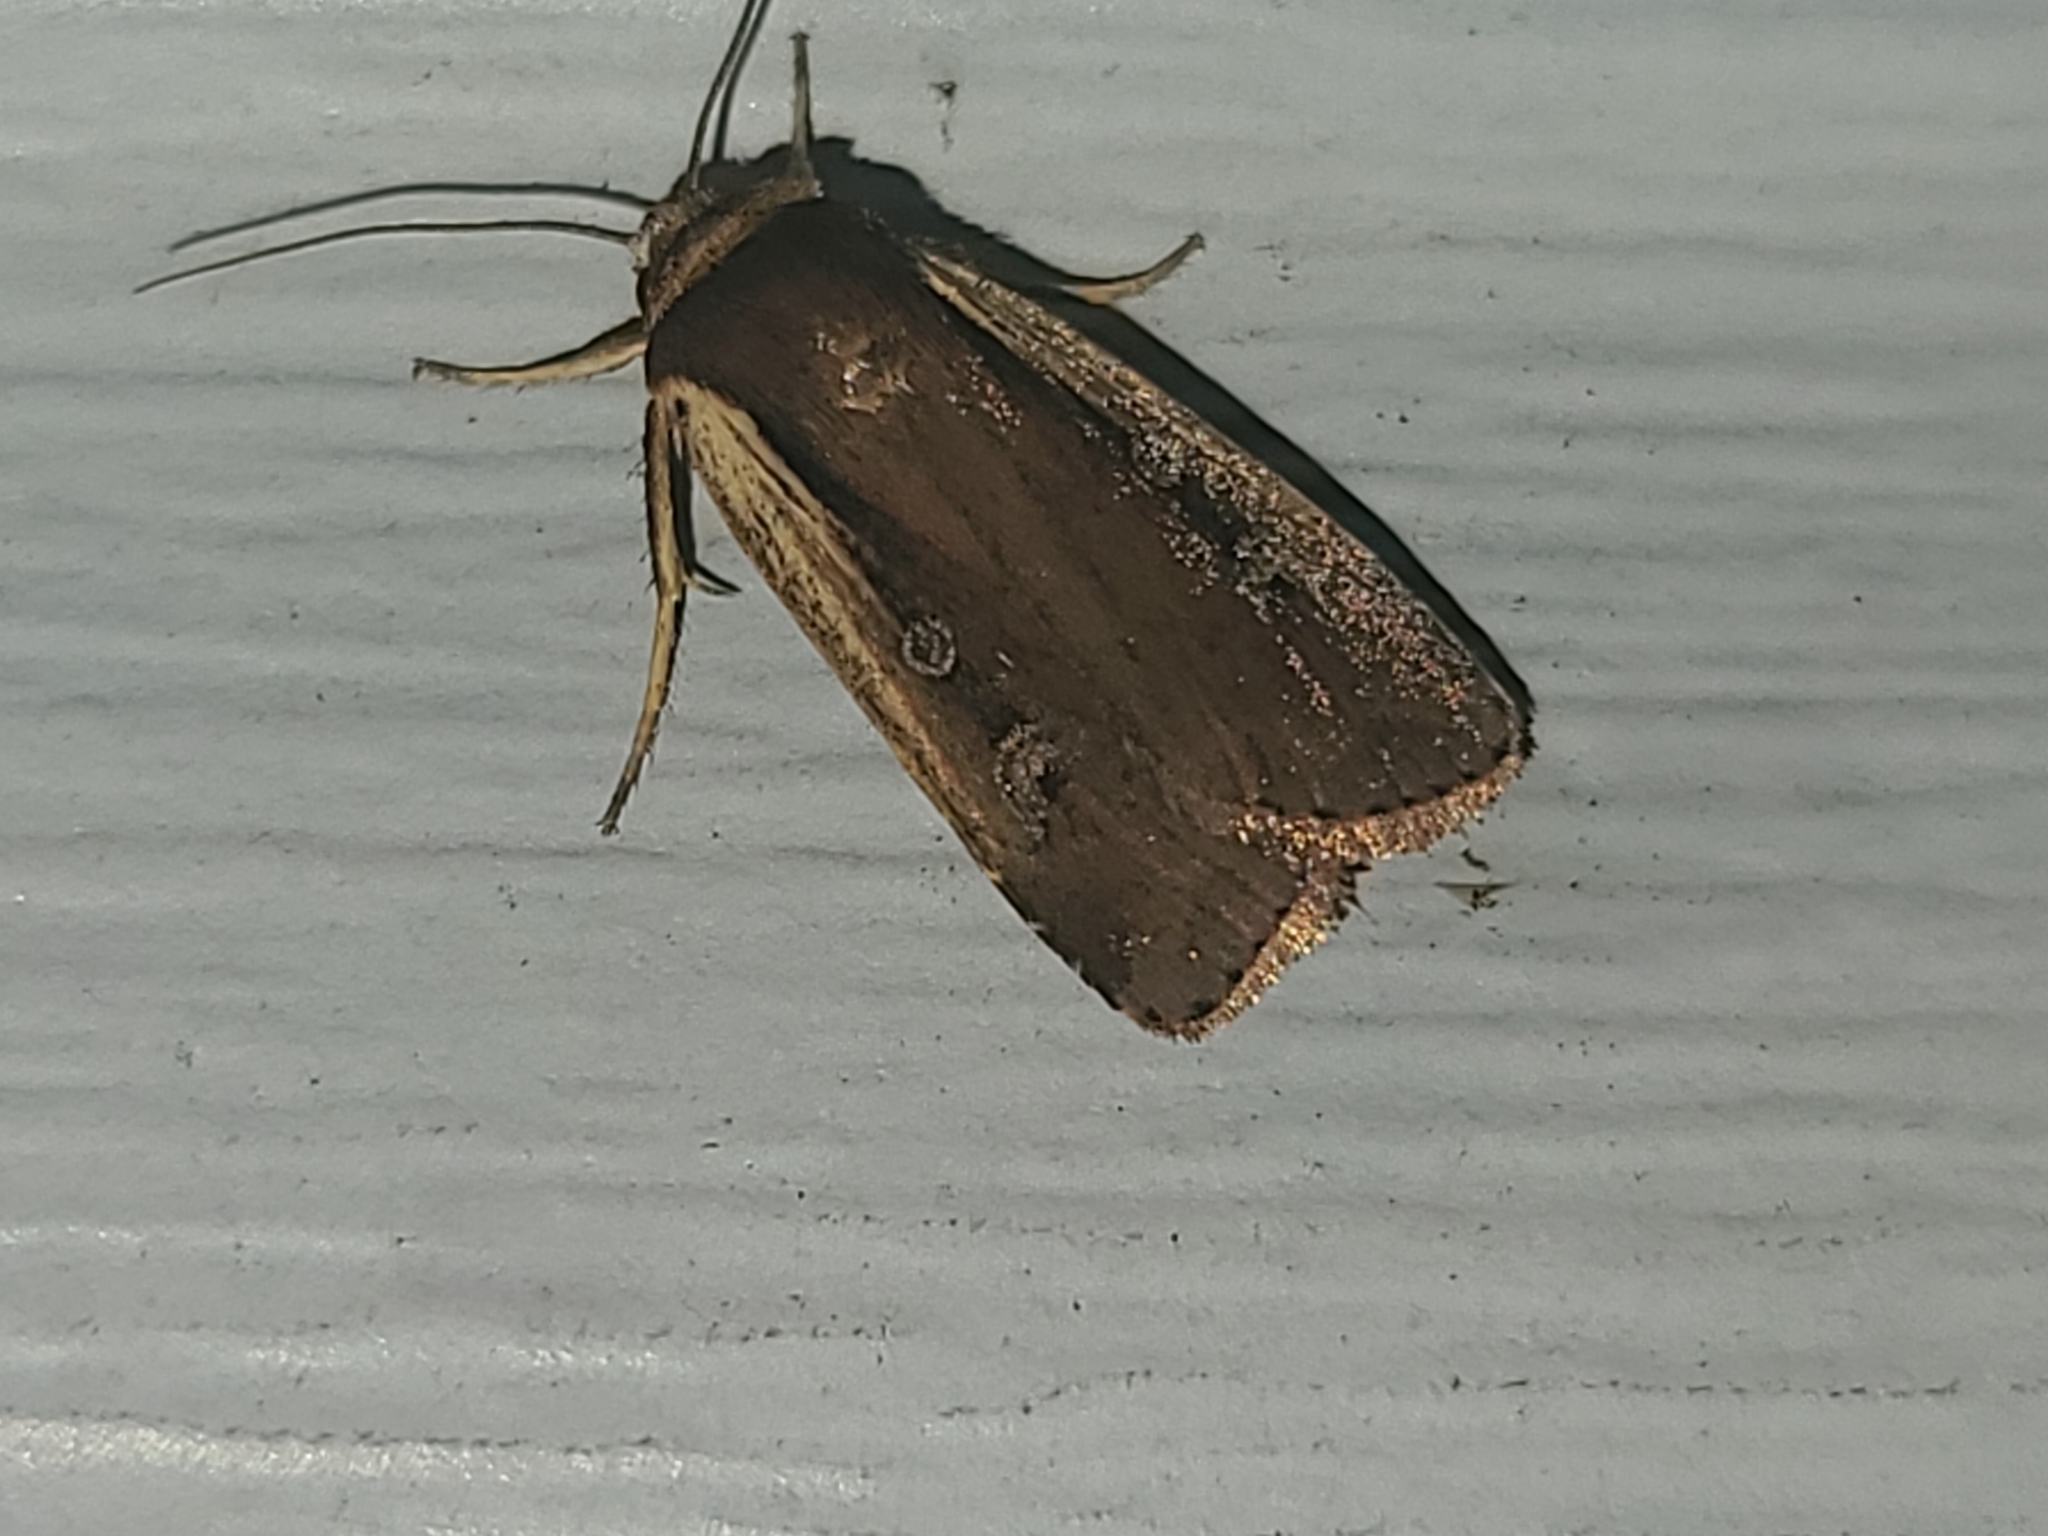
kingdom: Animalia
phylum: Arthropoda
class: Insecta
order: Lepidoptera
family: Noctuidae
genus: Ochropleura
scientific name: Ochropleura implecta
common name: Flame-shouldered dart
